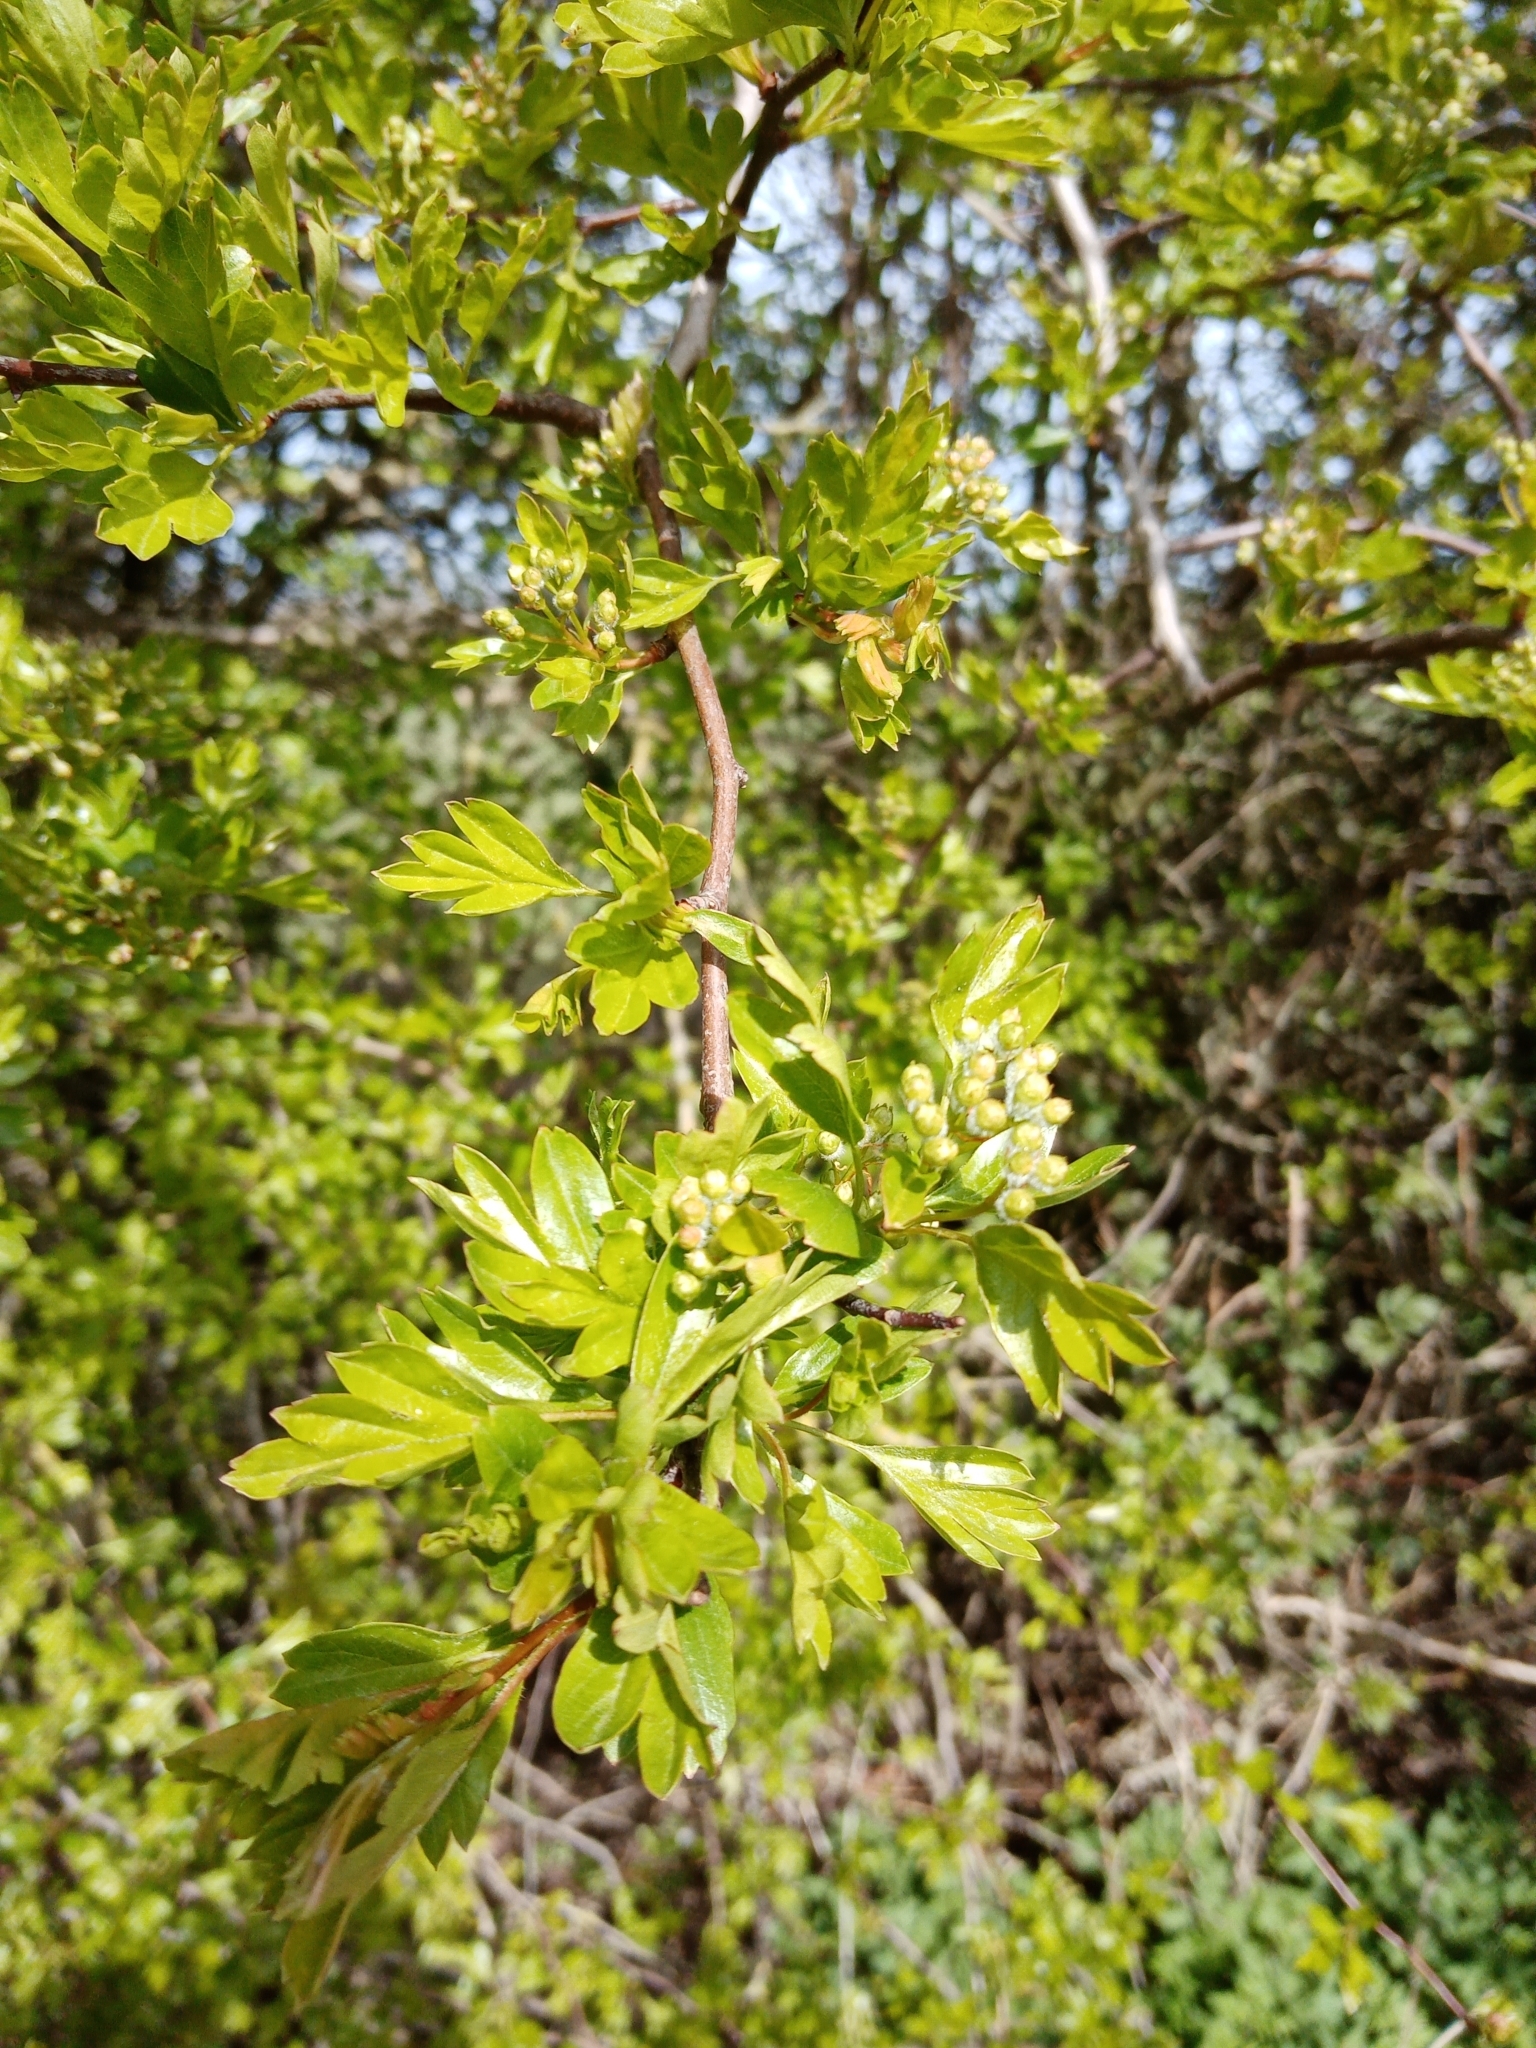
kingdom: Plantae
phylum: Tracheophyta
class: Magnoliopsida
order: Rosales
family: Rosaceae
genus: Crataegus
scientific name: Crataegus monogyna
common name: Hawthorn
